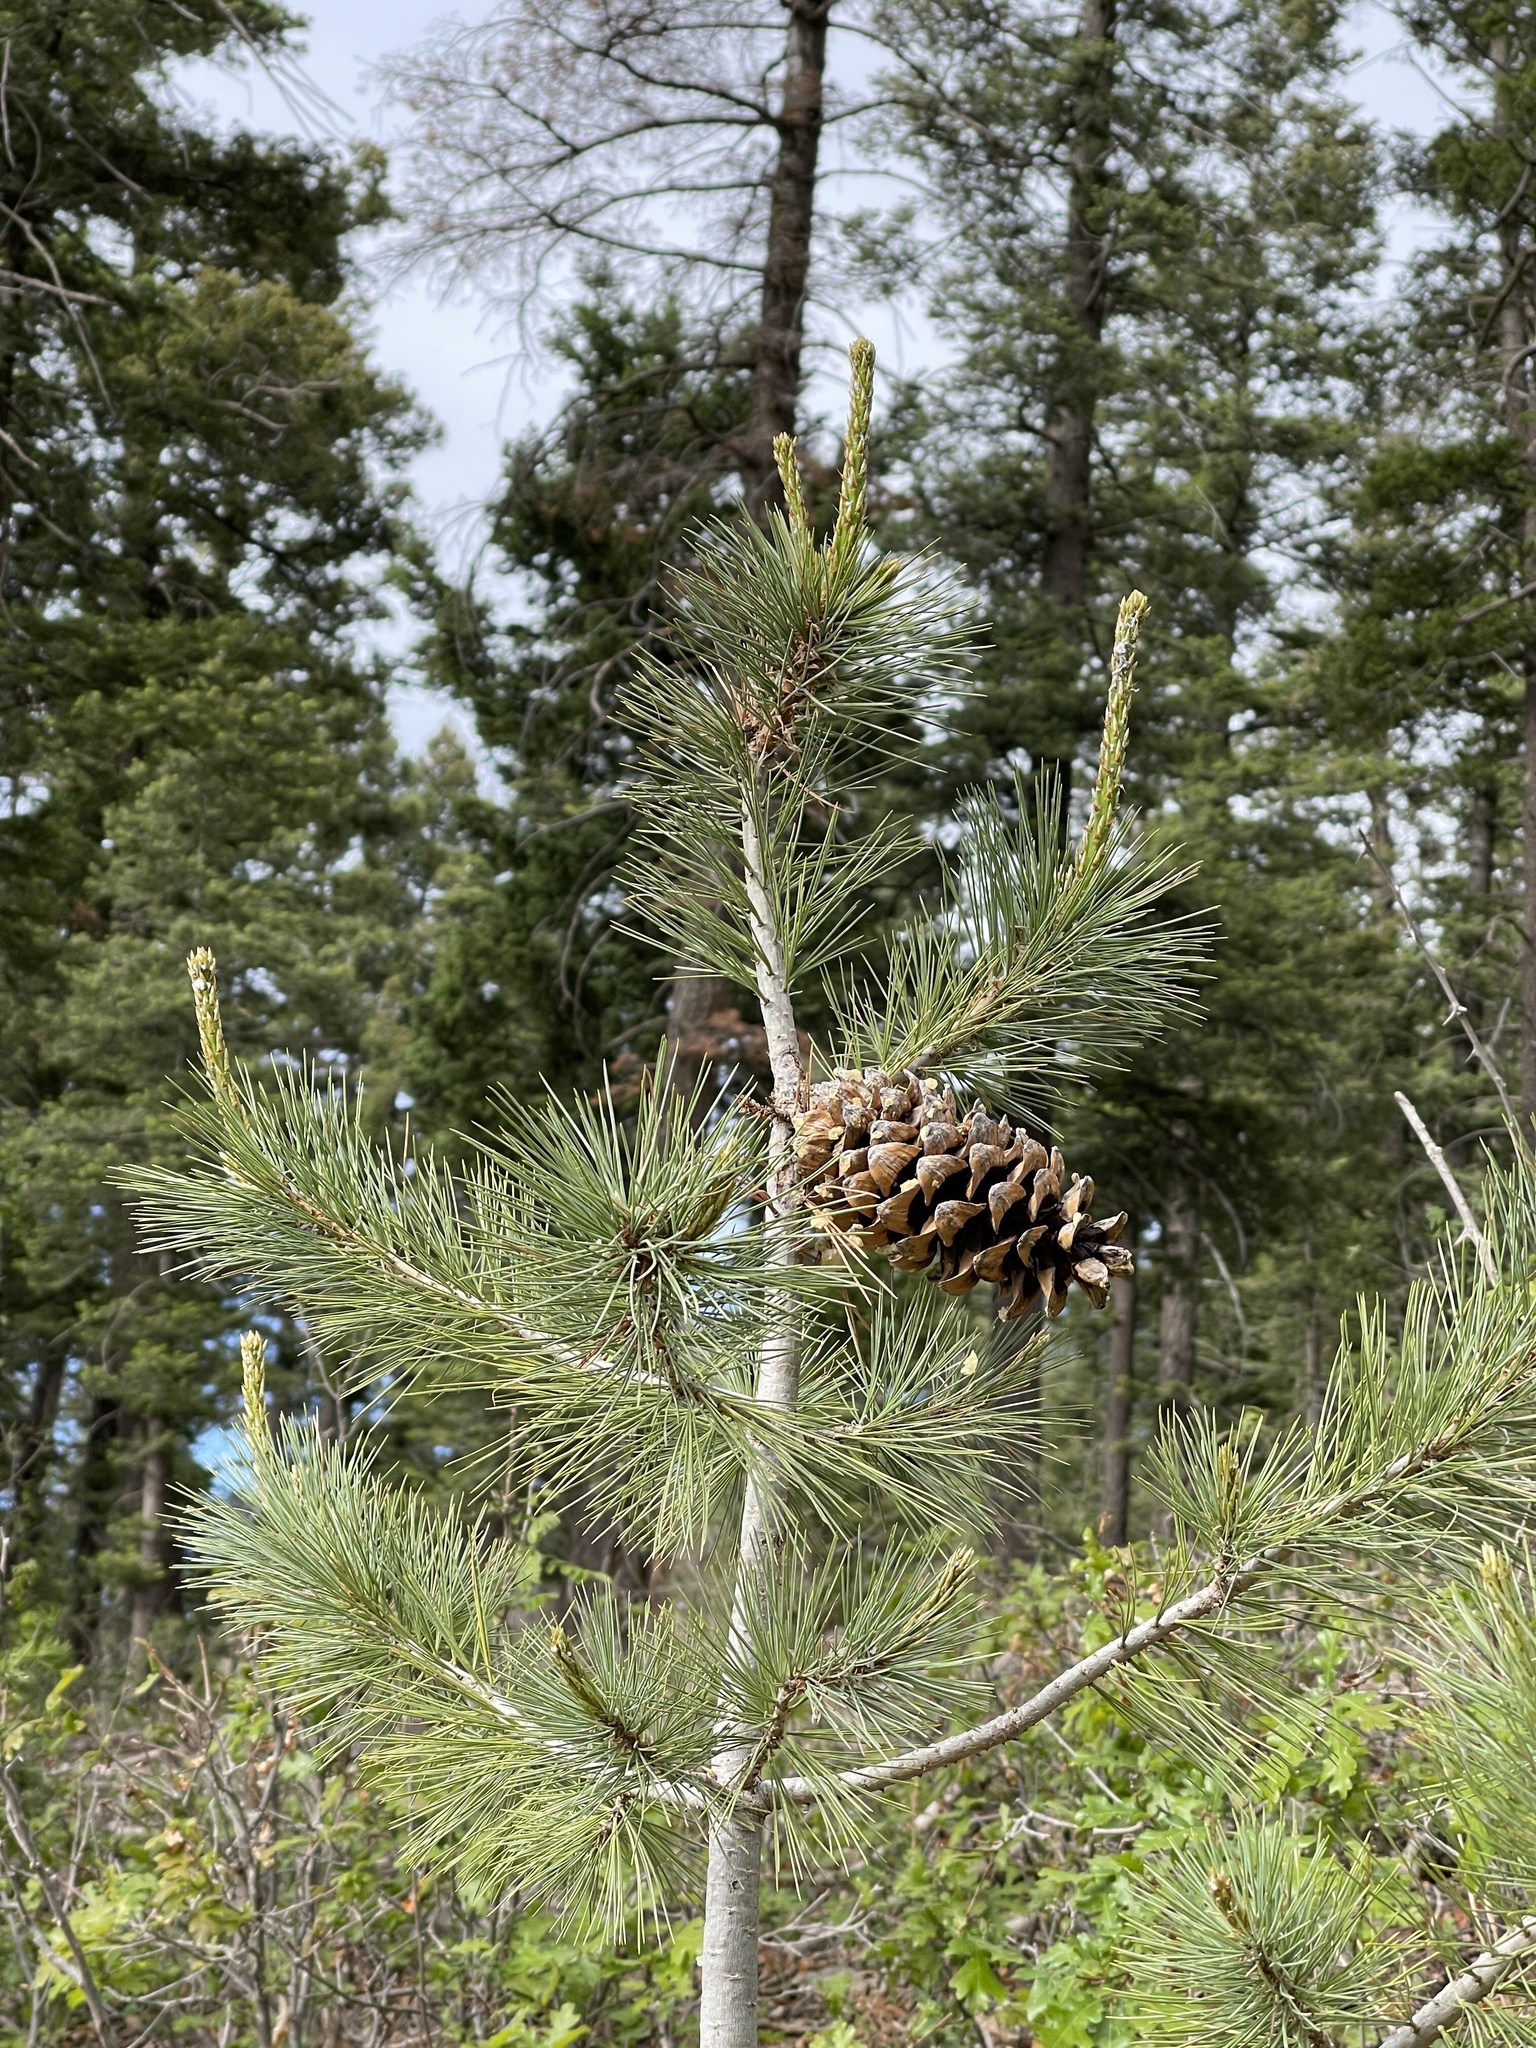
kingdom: Plantae
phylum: Tracheophyta
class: Pinopsida
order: Pinales
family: Pinaceae
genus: Pinus
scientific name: Pinus strobiformis
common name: Southwestern white pine
